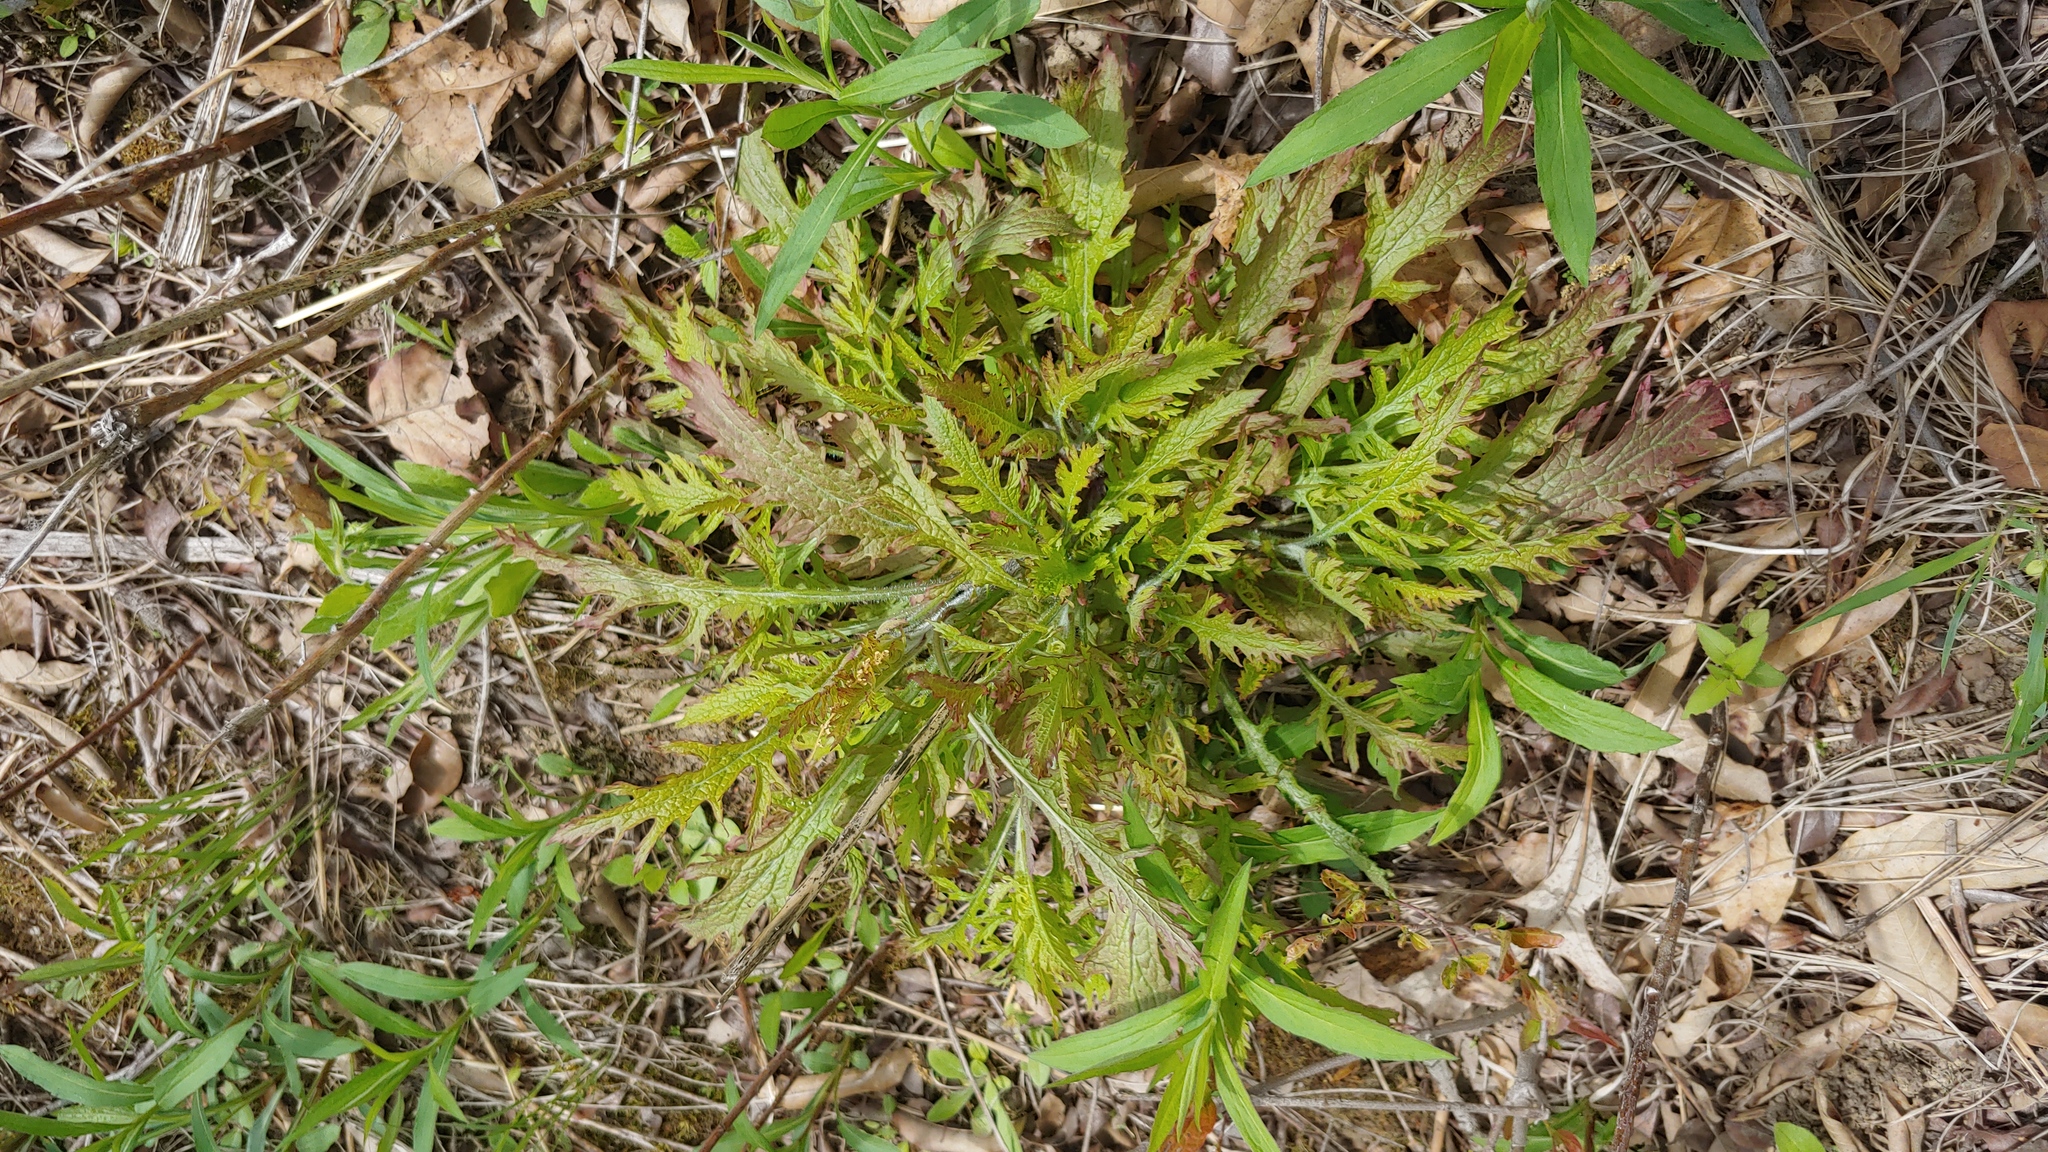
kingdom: Plantae
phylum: Tracheophyta
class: Magnoliopsida
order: Lamiales
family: Orobanchaceae
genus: Dasistoma
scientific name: Dasistoma macrophyllum
